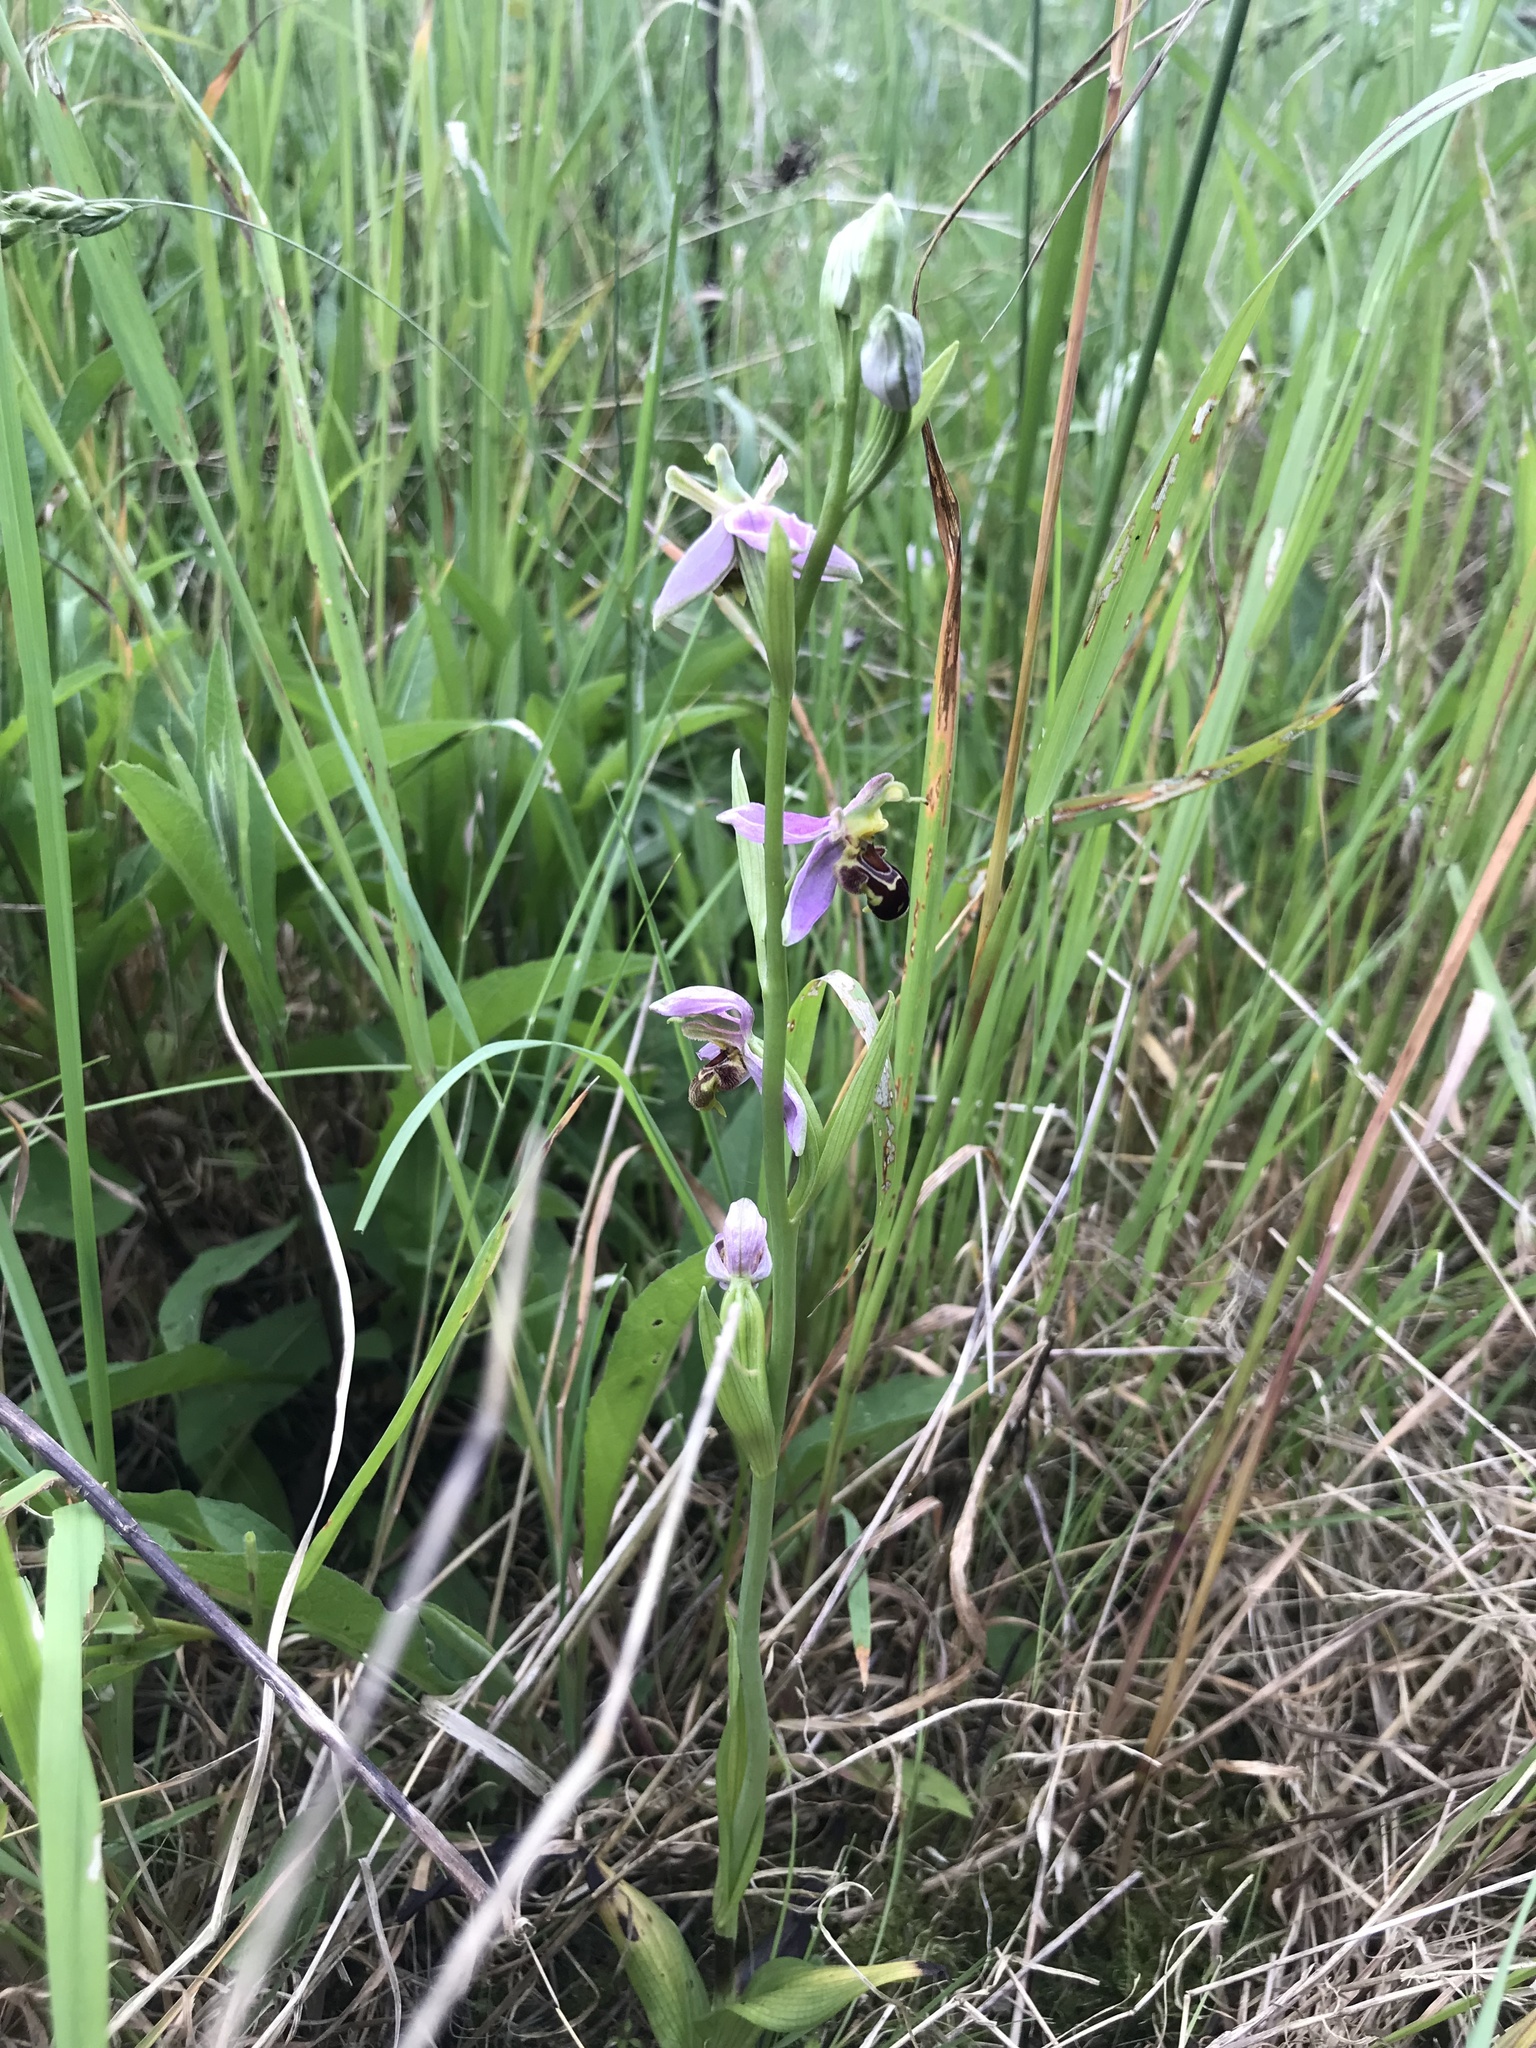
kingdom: Plantae
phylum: Tracheophyta
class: Liliopsida
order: Asparagales
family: Orchidaceae
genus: Ophrys
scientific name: Ophrys apifera
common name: Bee orchid
